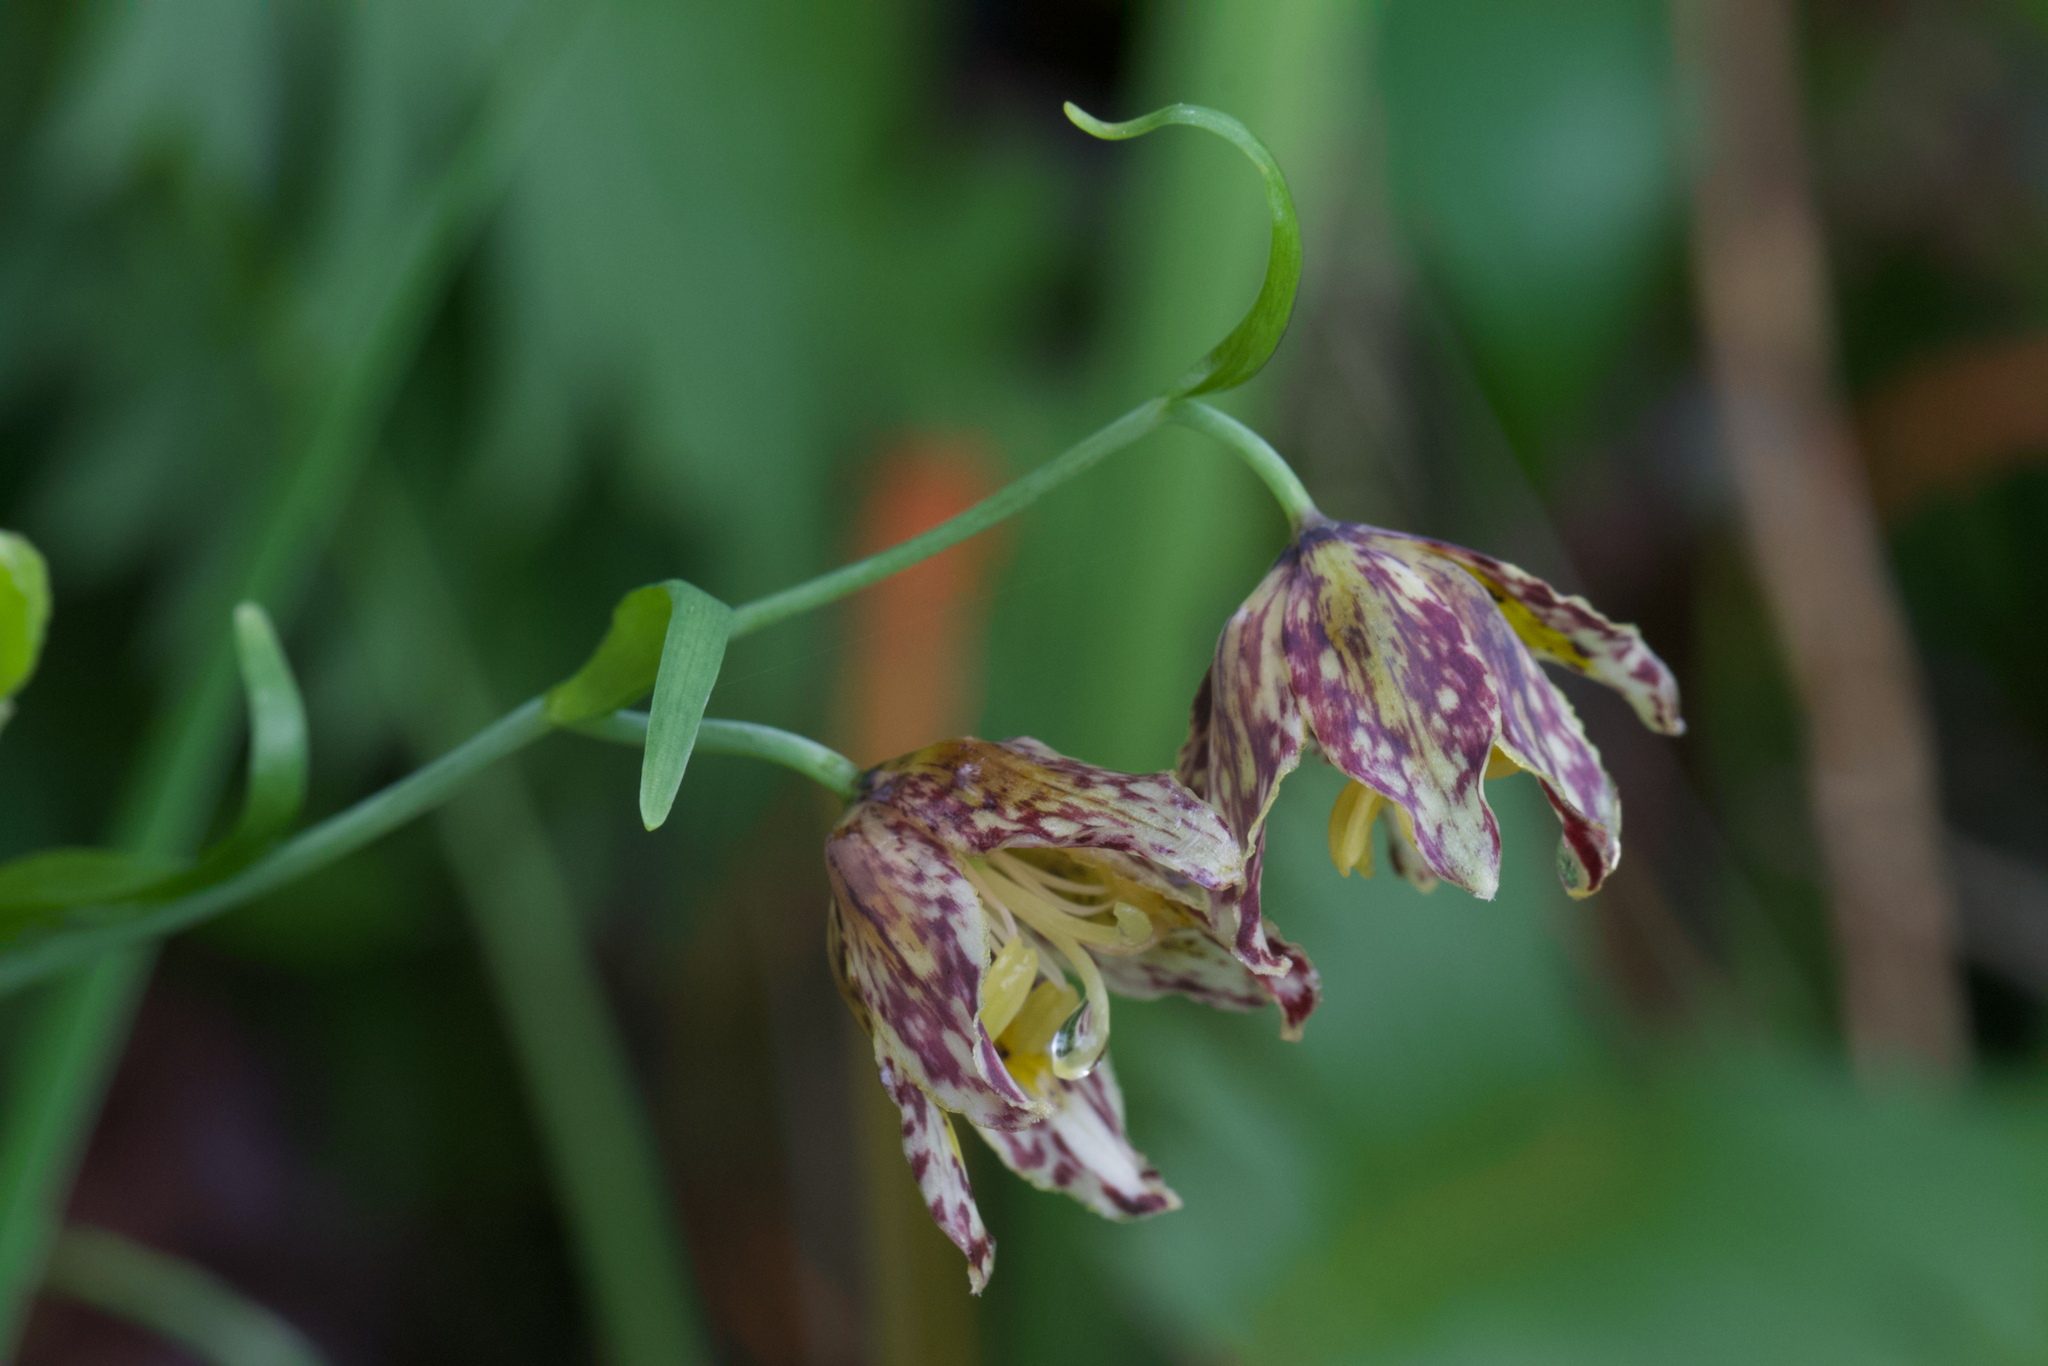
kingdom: Plantae
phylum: Tracheophyta
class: Liliopsida
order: Liliales
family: Liliaceae
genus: Fritillaria
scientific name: Fritillaria affinis
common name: Ojai fritillary
